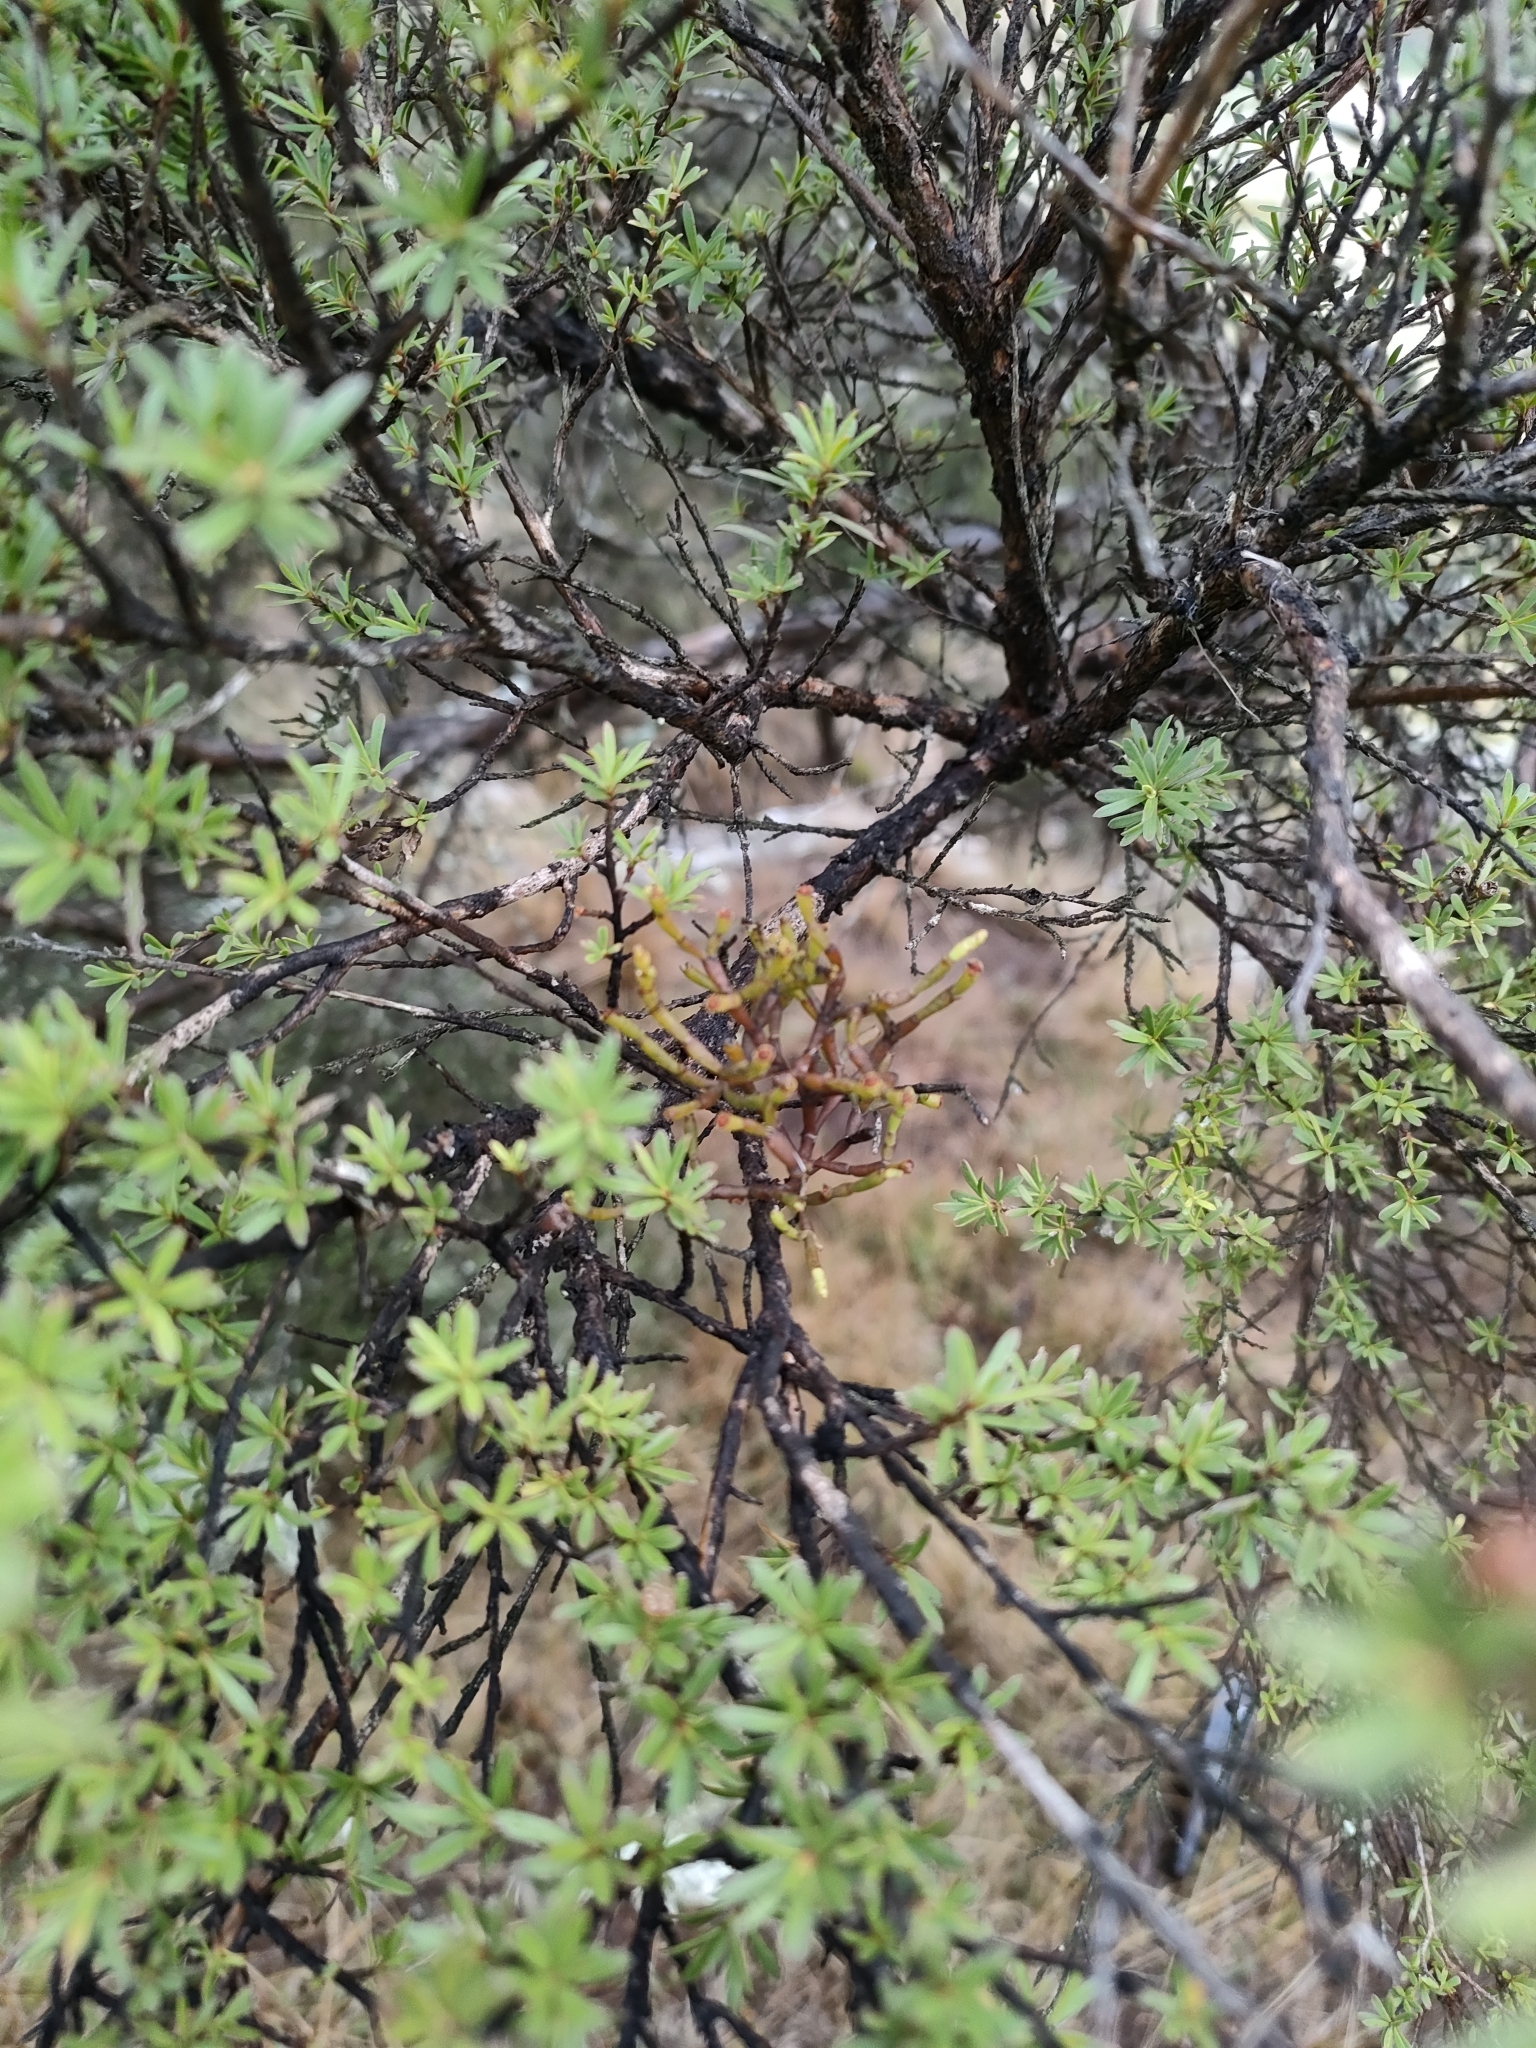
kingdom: Plantae
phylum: Tracheophyta
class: Magnoliopsida
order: Santalales
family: Viscaceae
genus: Korthalsella
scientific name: Korthalsella salicornioides
